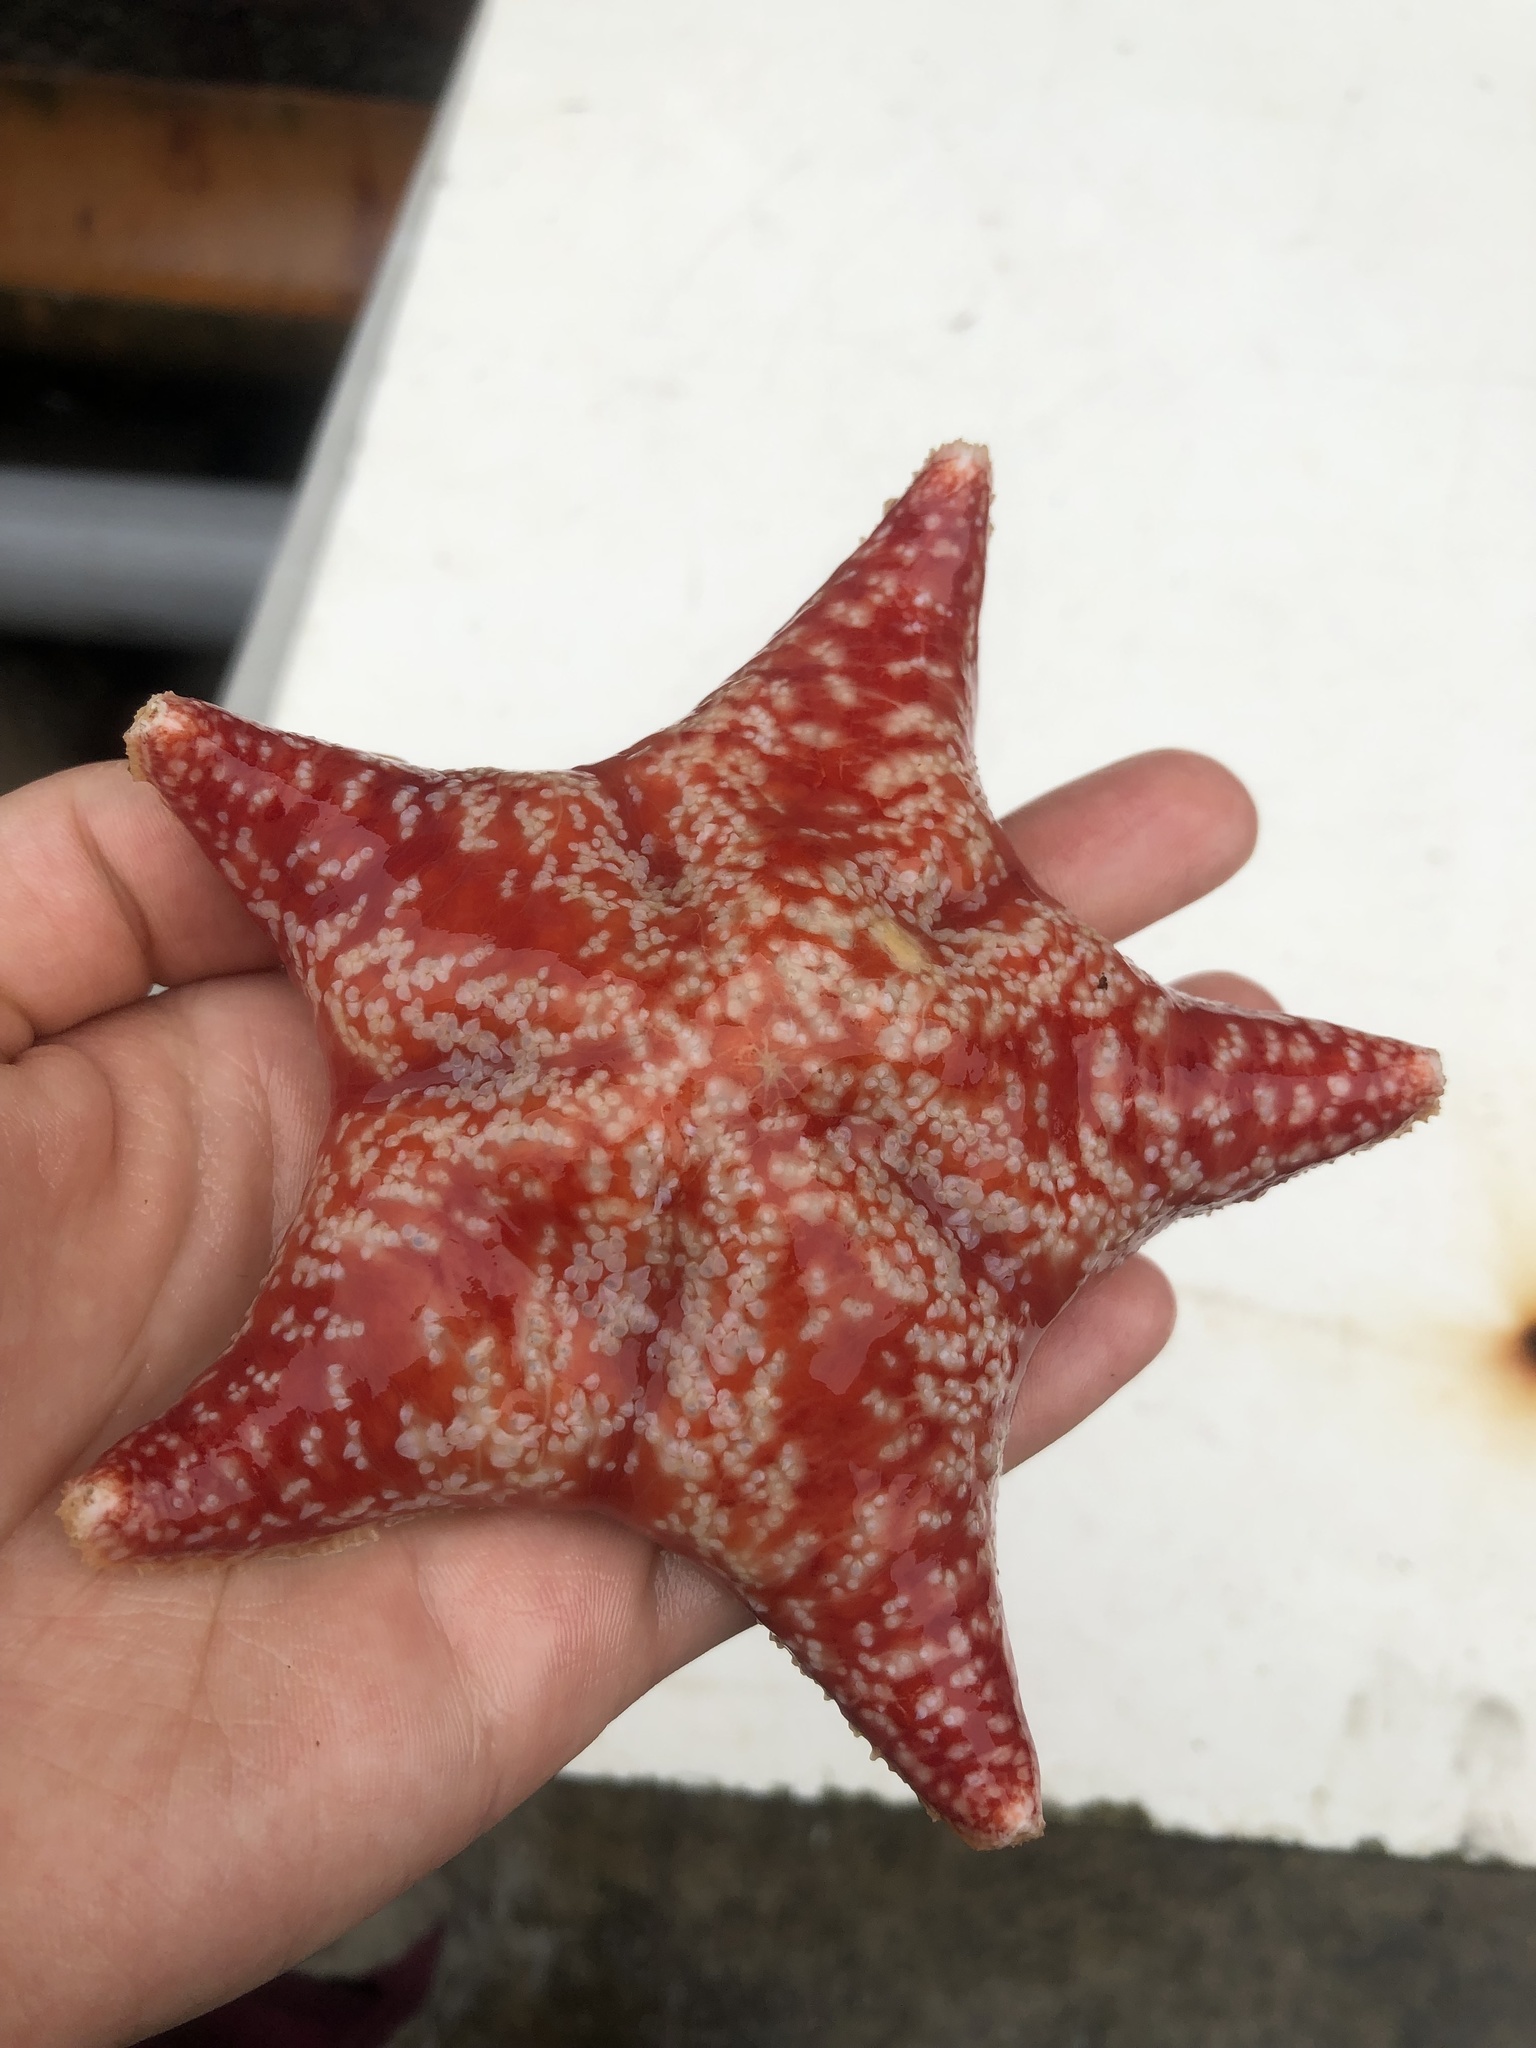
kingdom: Animalia
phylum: Echinodermata
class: Asteroidea
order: Valvatida
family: Poraniidae
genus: Porania
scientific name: Porania pulvillus
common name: Red cushion stat
